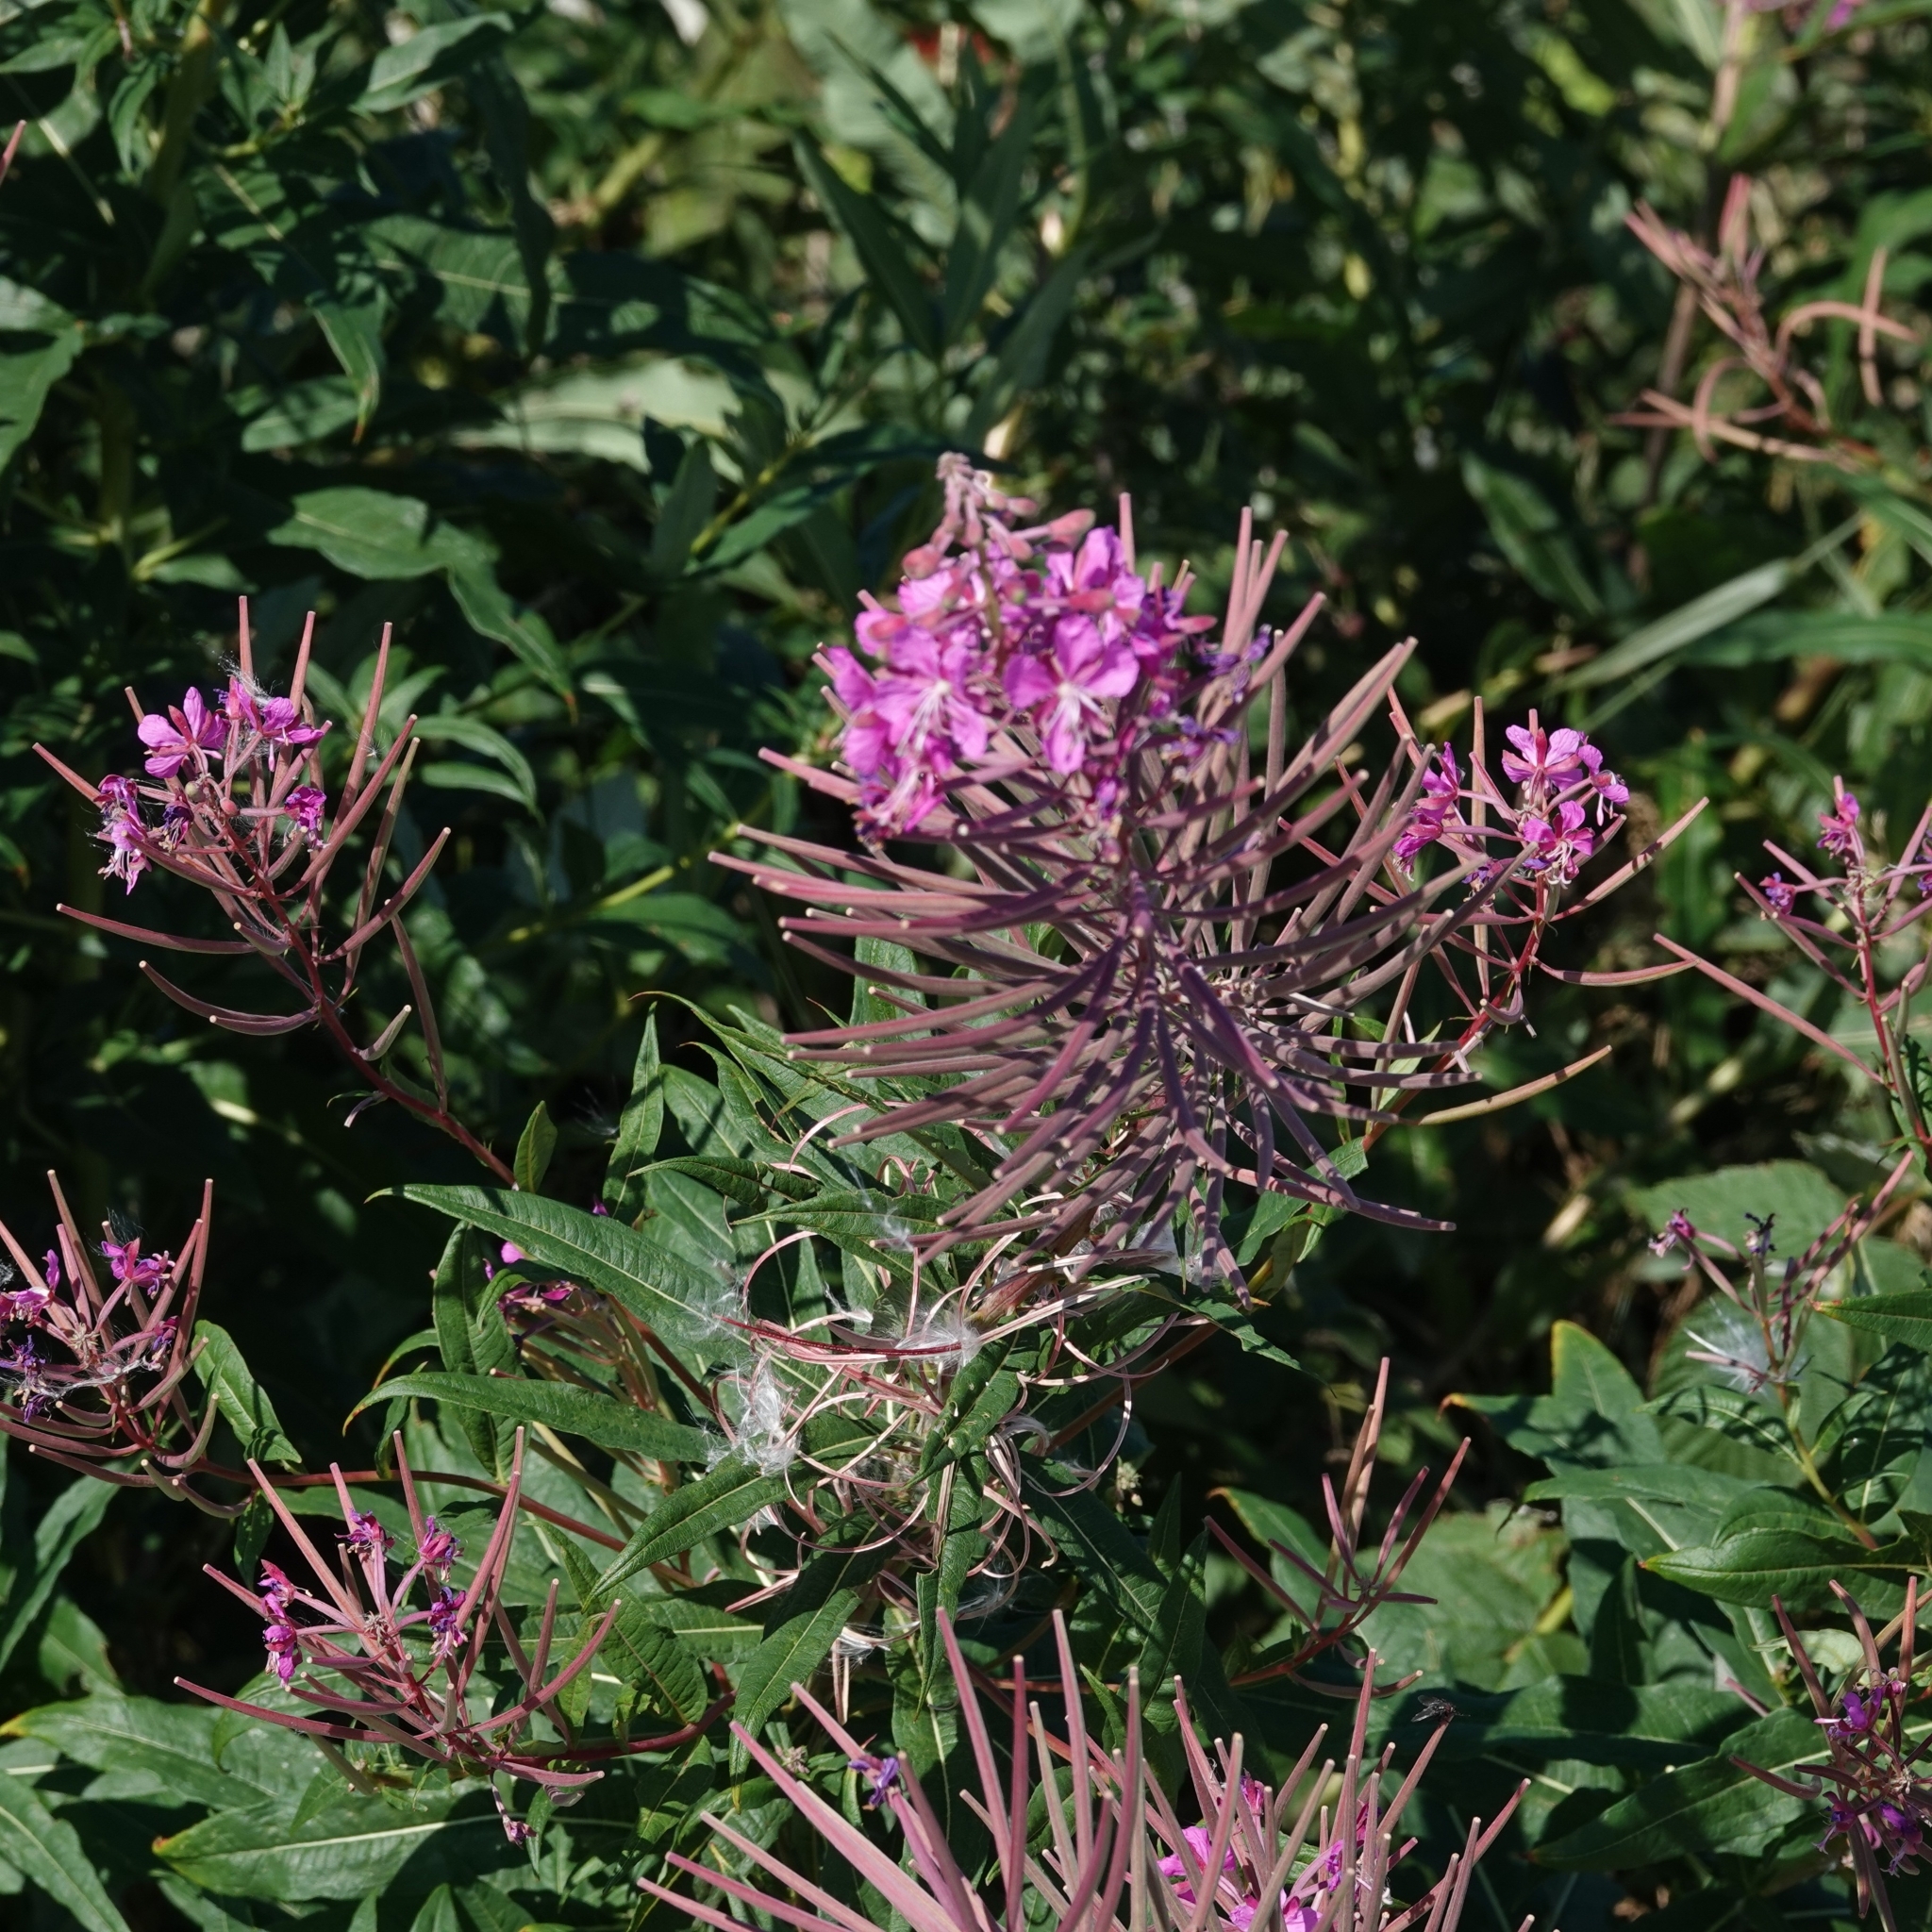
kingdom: Plantae
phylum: Tracheophyta
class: Magnoliopsida
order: Myrtales
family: Onagraceae
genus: Chamaenerion
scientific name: Chamaenerion angustifolium
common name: Fireweed
